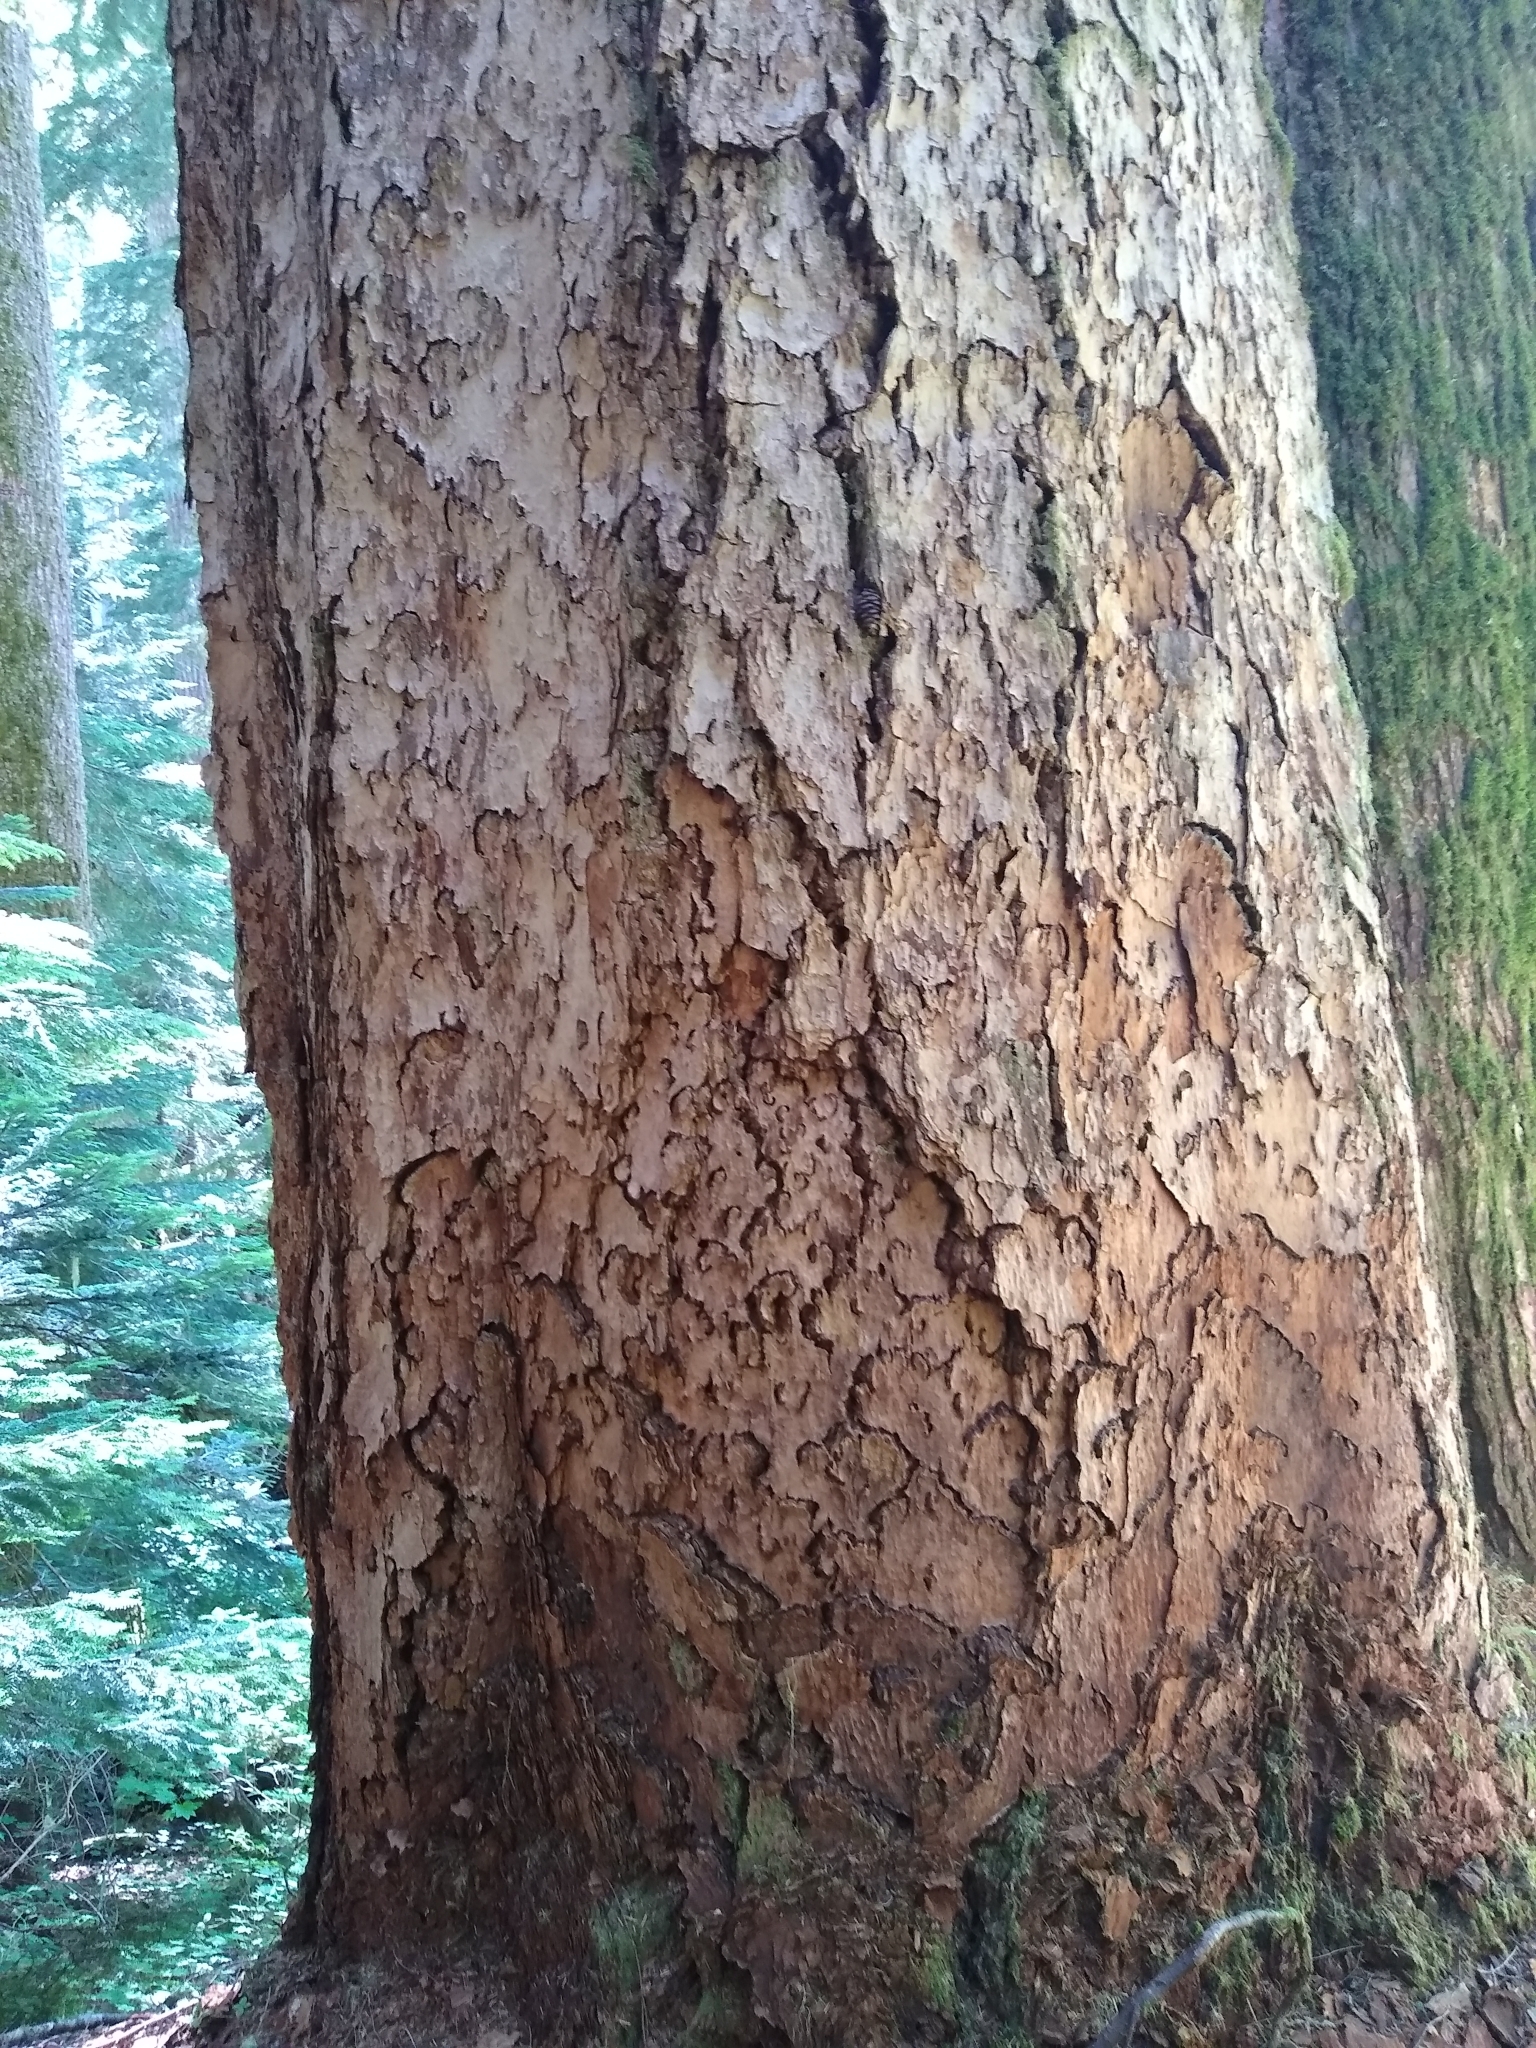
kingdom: Plantae
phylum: Tracheophyta
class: Pinopsida
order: Pinales
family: Pinaceae
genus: Pseudotsuga
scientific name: Pseudotsuga menziesii
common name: Douglas fir
